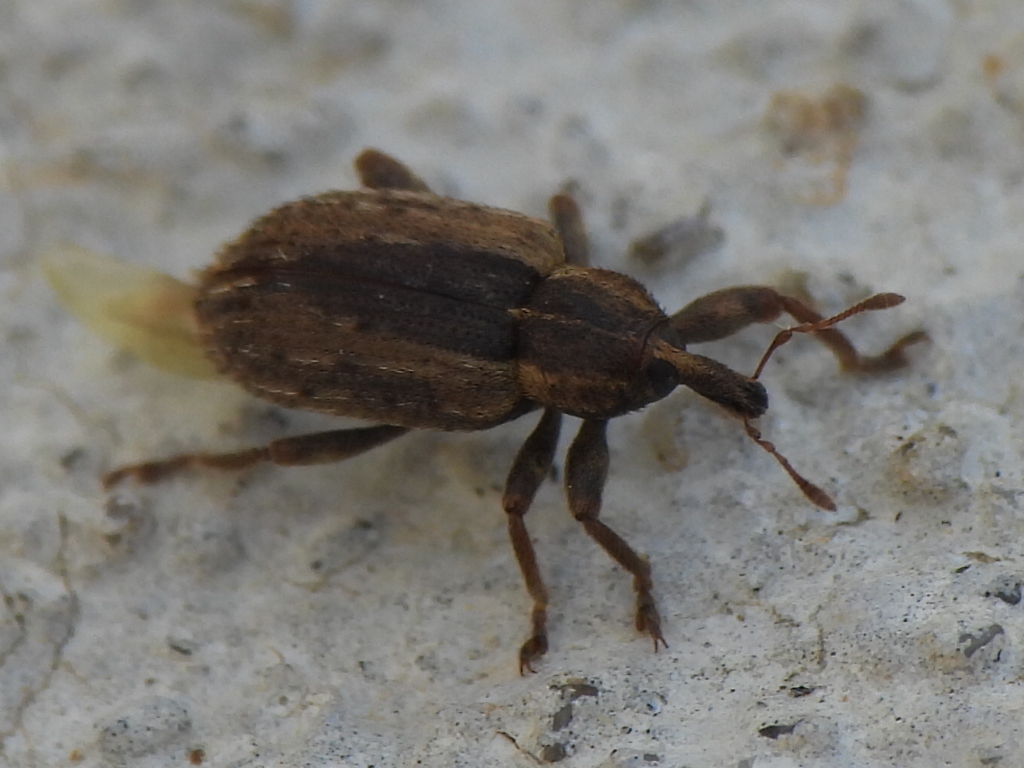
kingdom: Animalia
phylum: Arthropoda
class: Insecta
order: Coleoptera
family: Curculionidae
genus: Hypera
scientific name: Hypera postica
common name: Weevil
